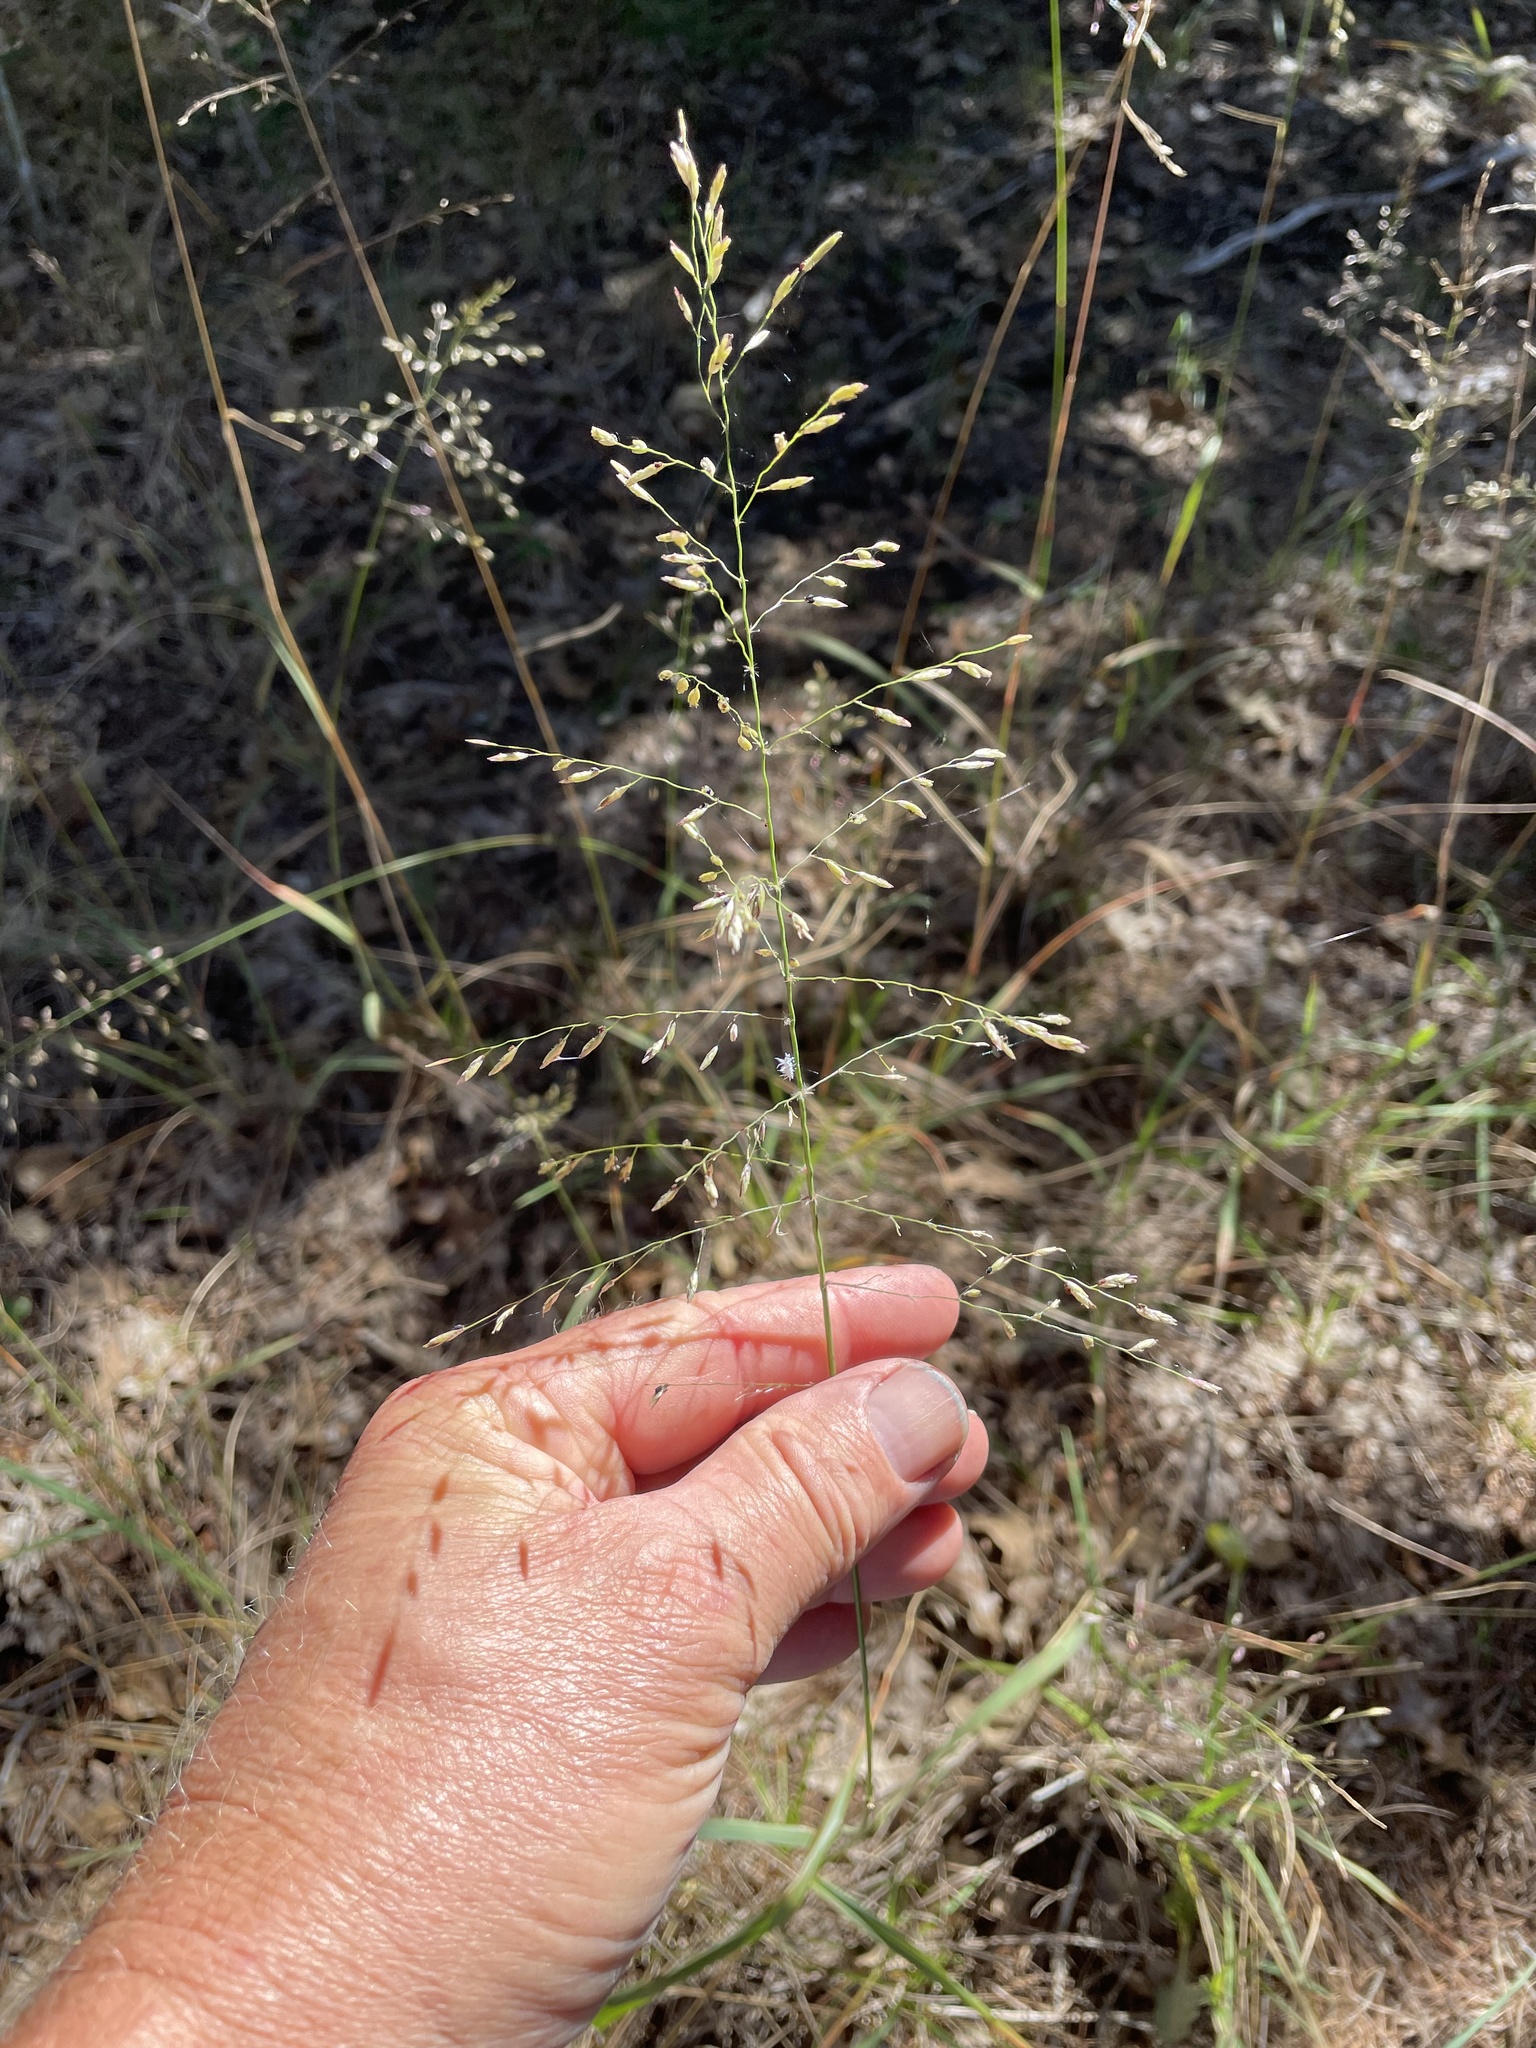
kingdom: Plantae
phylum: Tracheophyta
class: Liliopsida
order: Poales
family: Poaceae
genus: Tridens
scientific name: Tridens chapmanii
